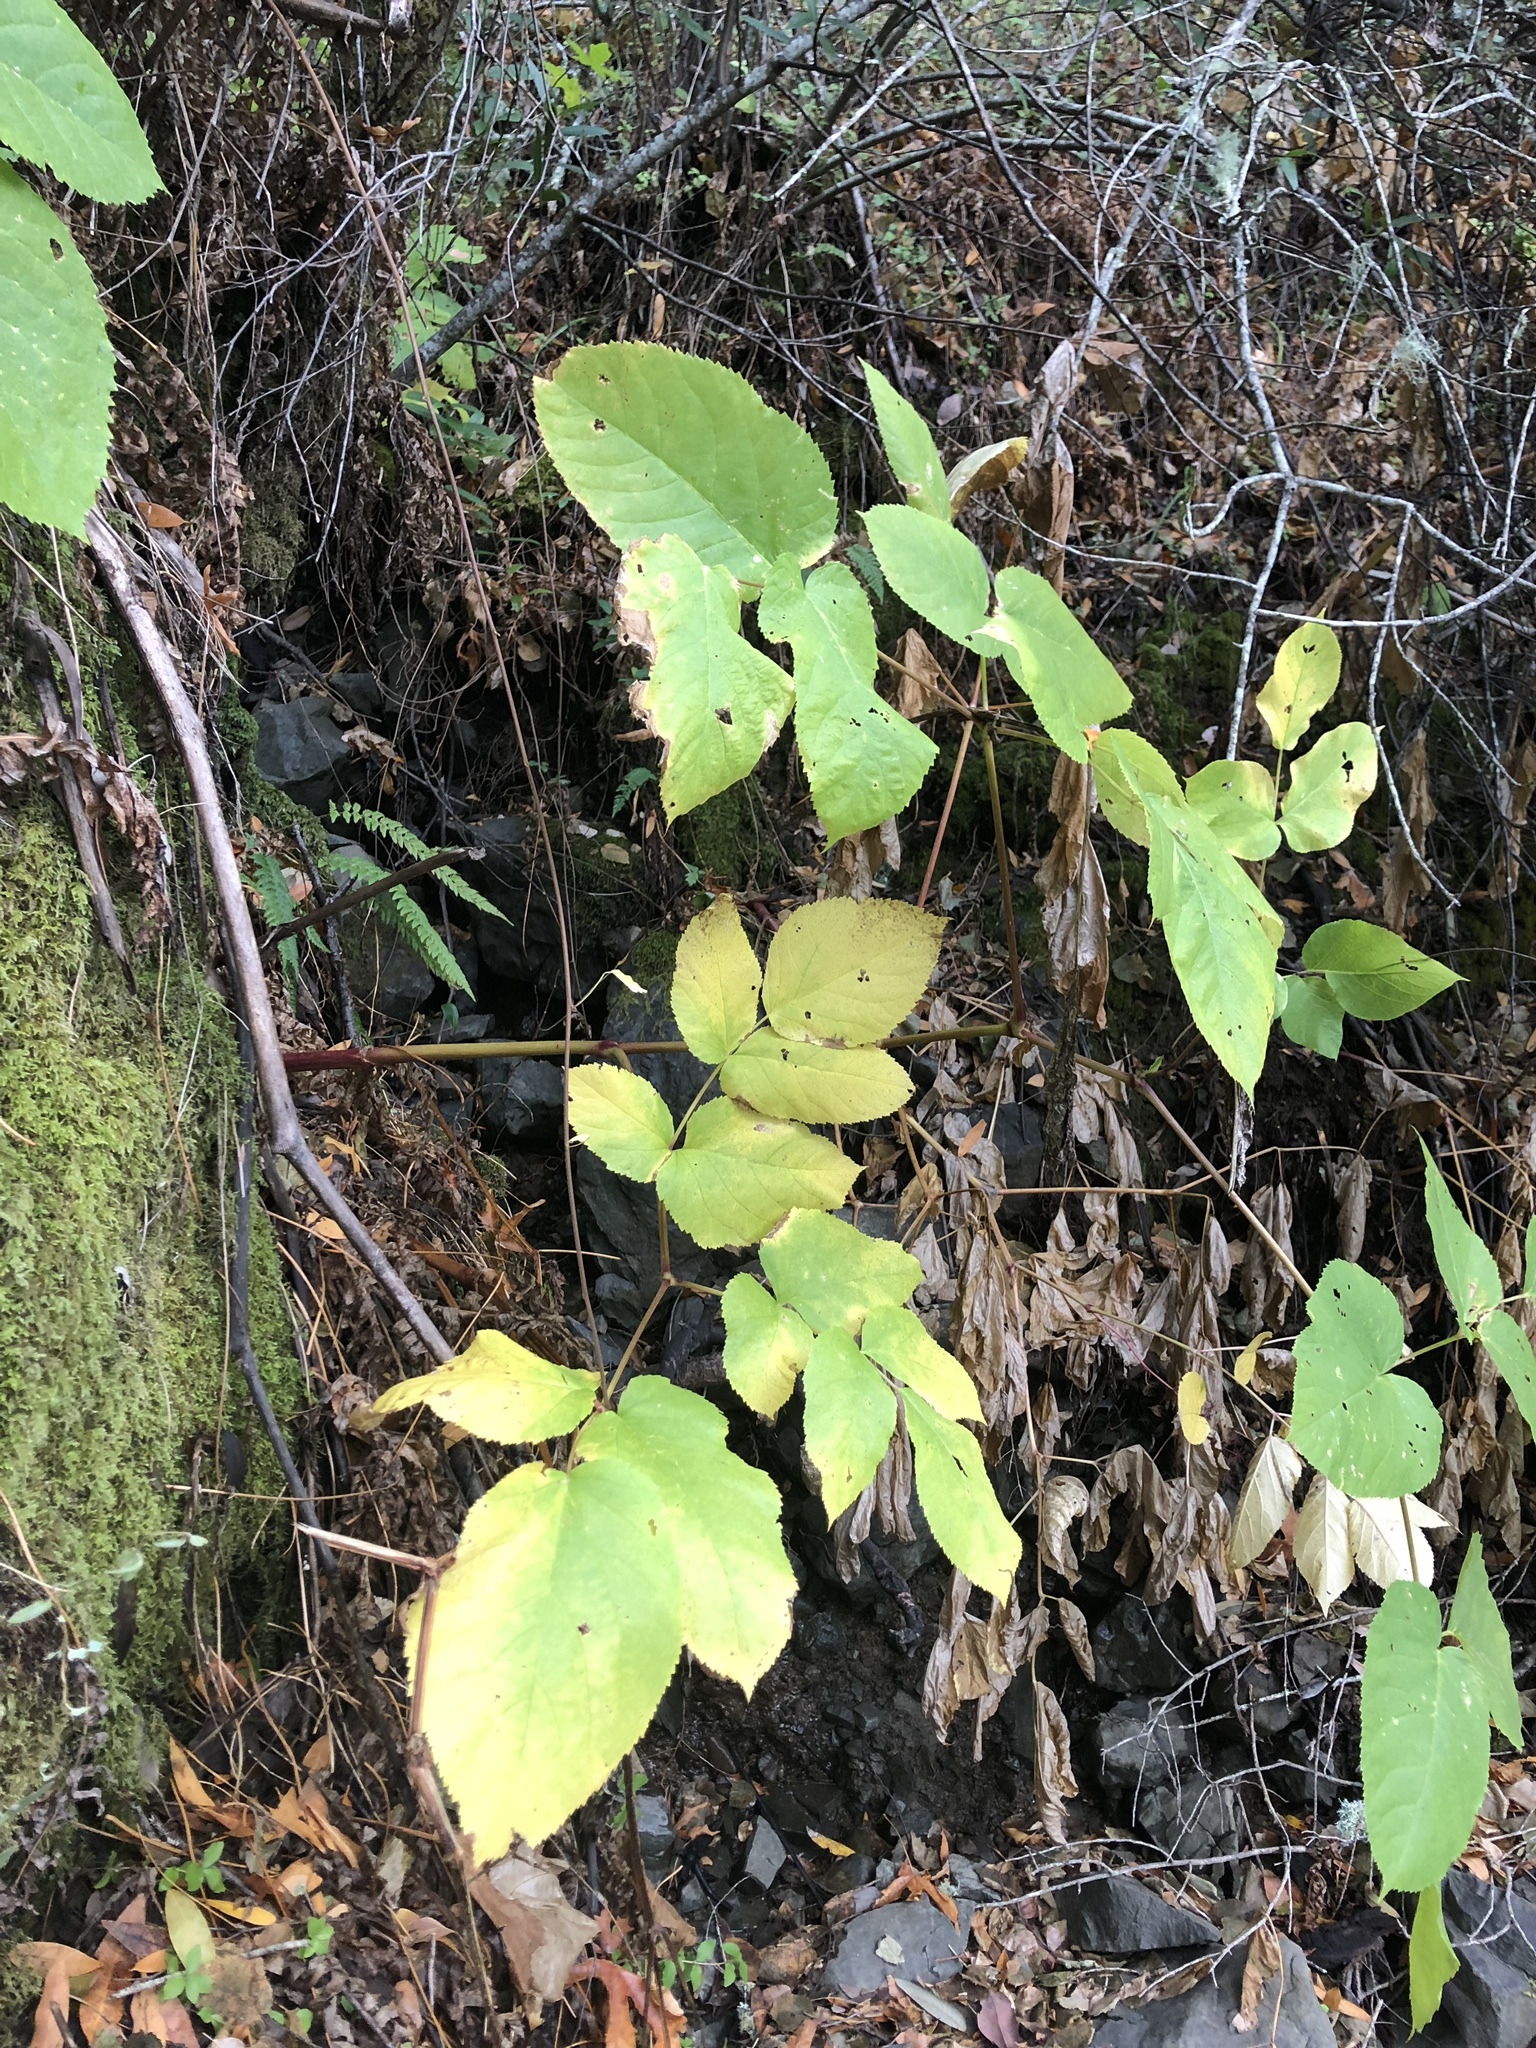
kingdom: Plantae
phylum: Tracheophyta
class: Magnoliopsida
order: Apiales
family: Araliaceae
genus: Aralia
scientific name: Aralia californica
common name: California-ginseng
